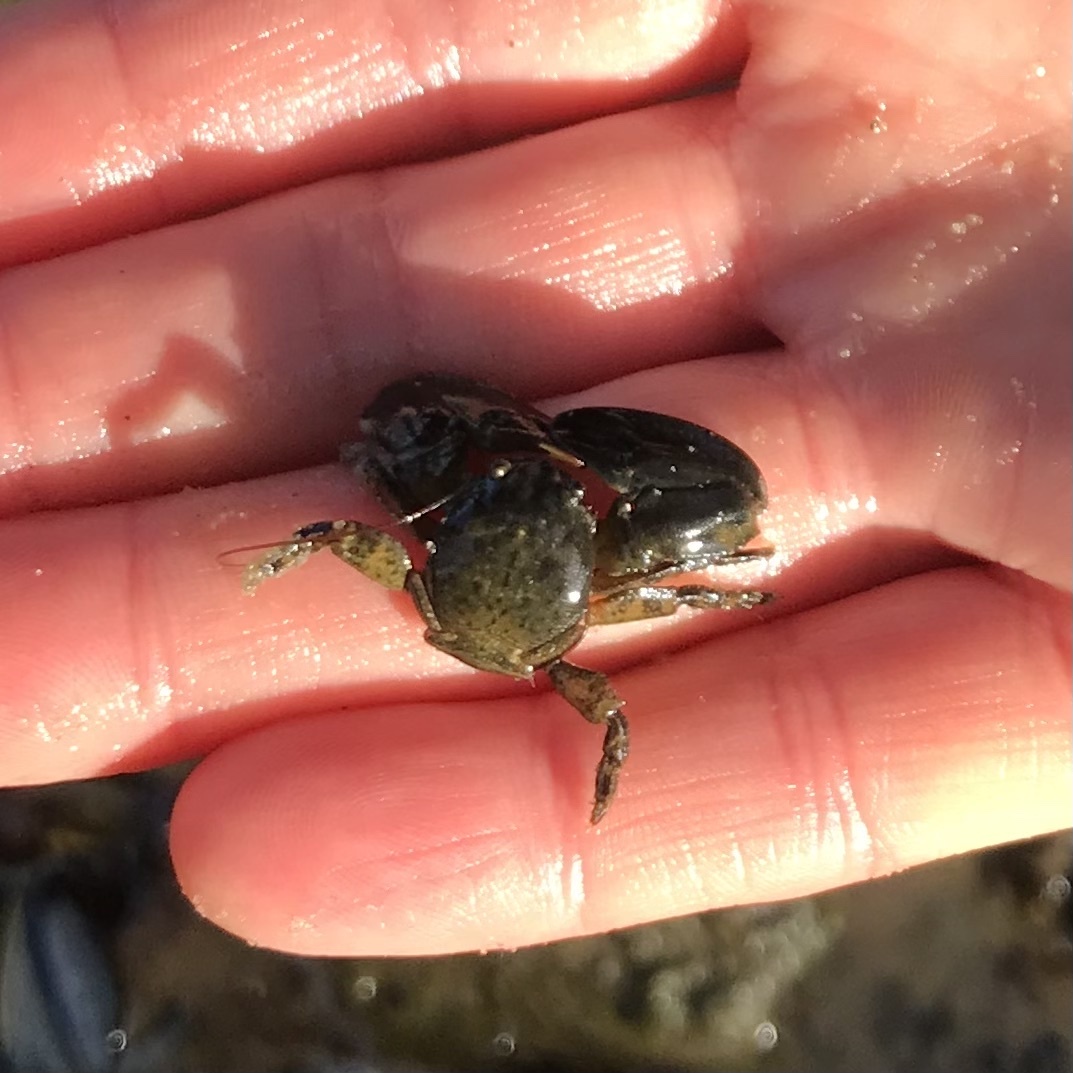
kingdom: Animalia
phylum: Arthropoda
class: Malacostraca
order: Decapoda
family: Porcellanidae
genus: Petrolisthes
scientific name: Petrolisthes elongatus
